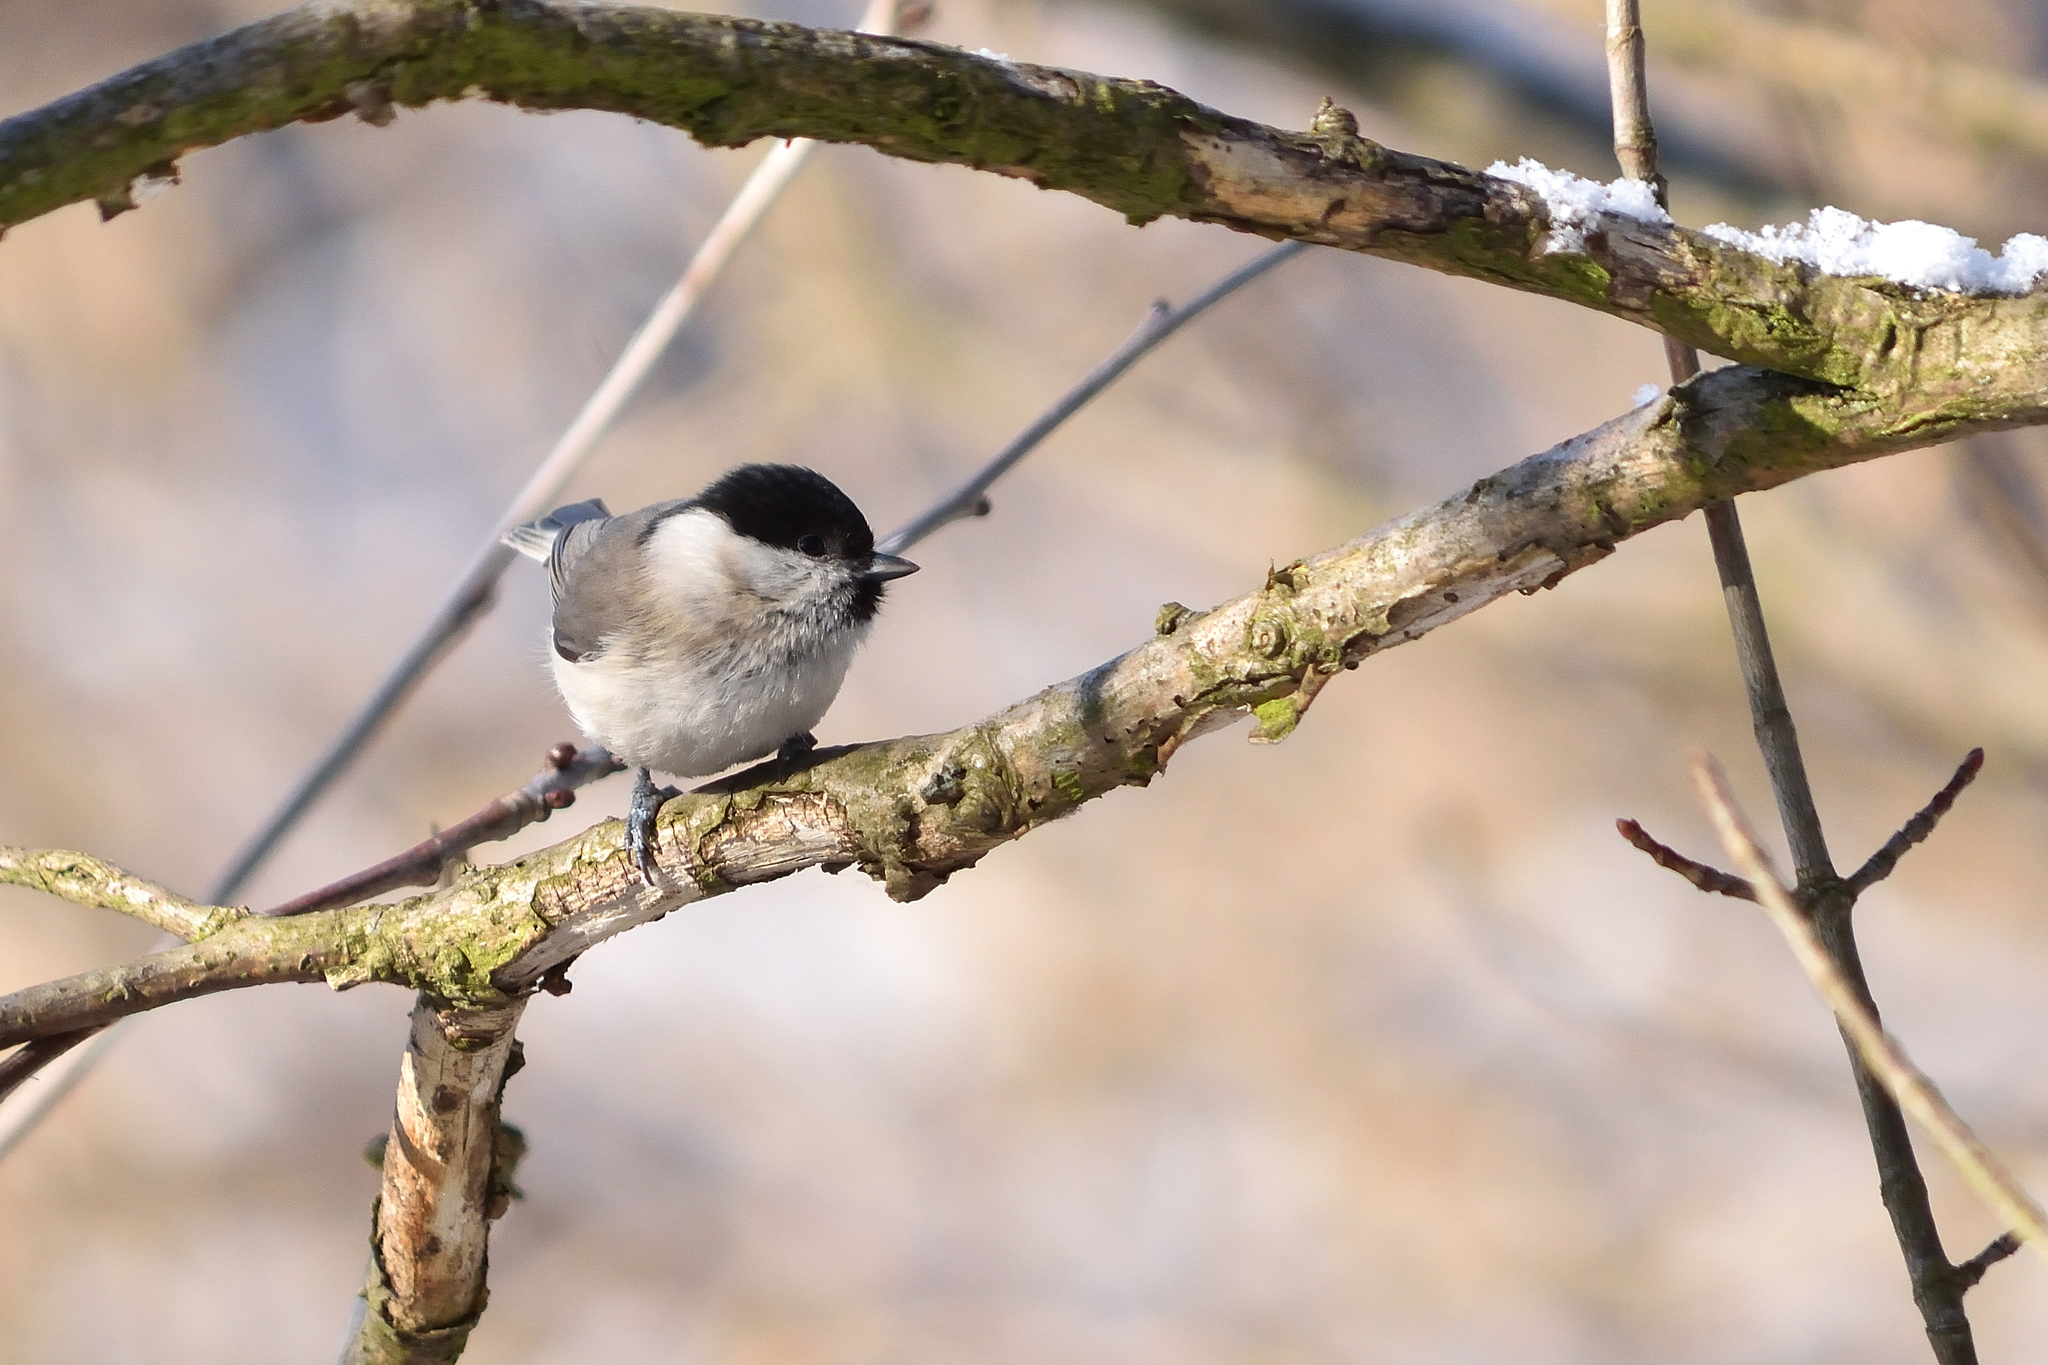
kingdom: Animalia
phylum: Chordata
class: Aves
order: Passeriformes
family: Paridae
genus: Poecile
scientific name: Poecile palustris
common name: Marsh tit
